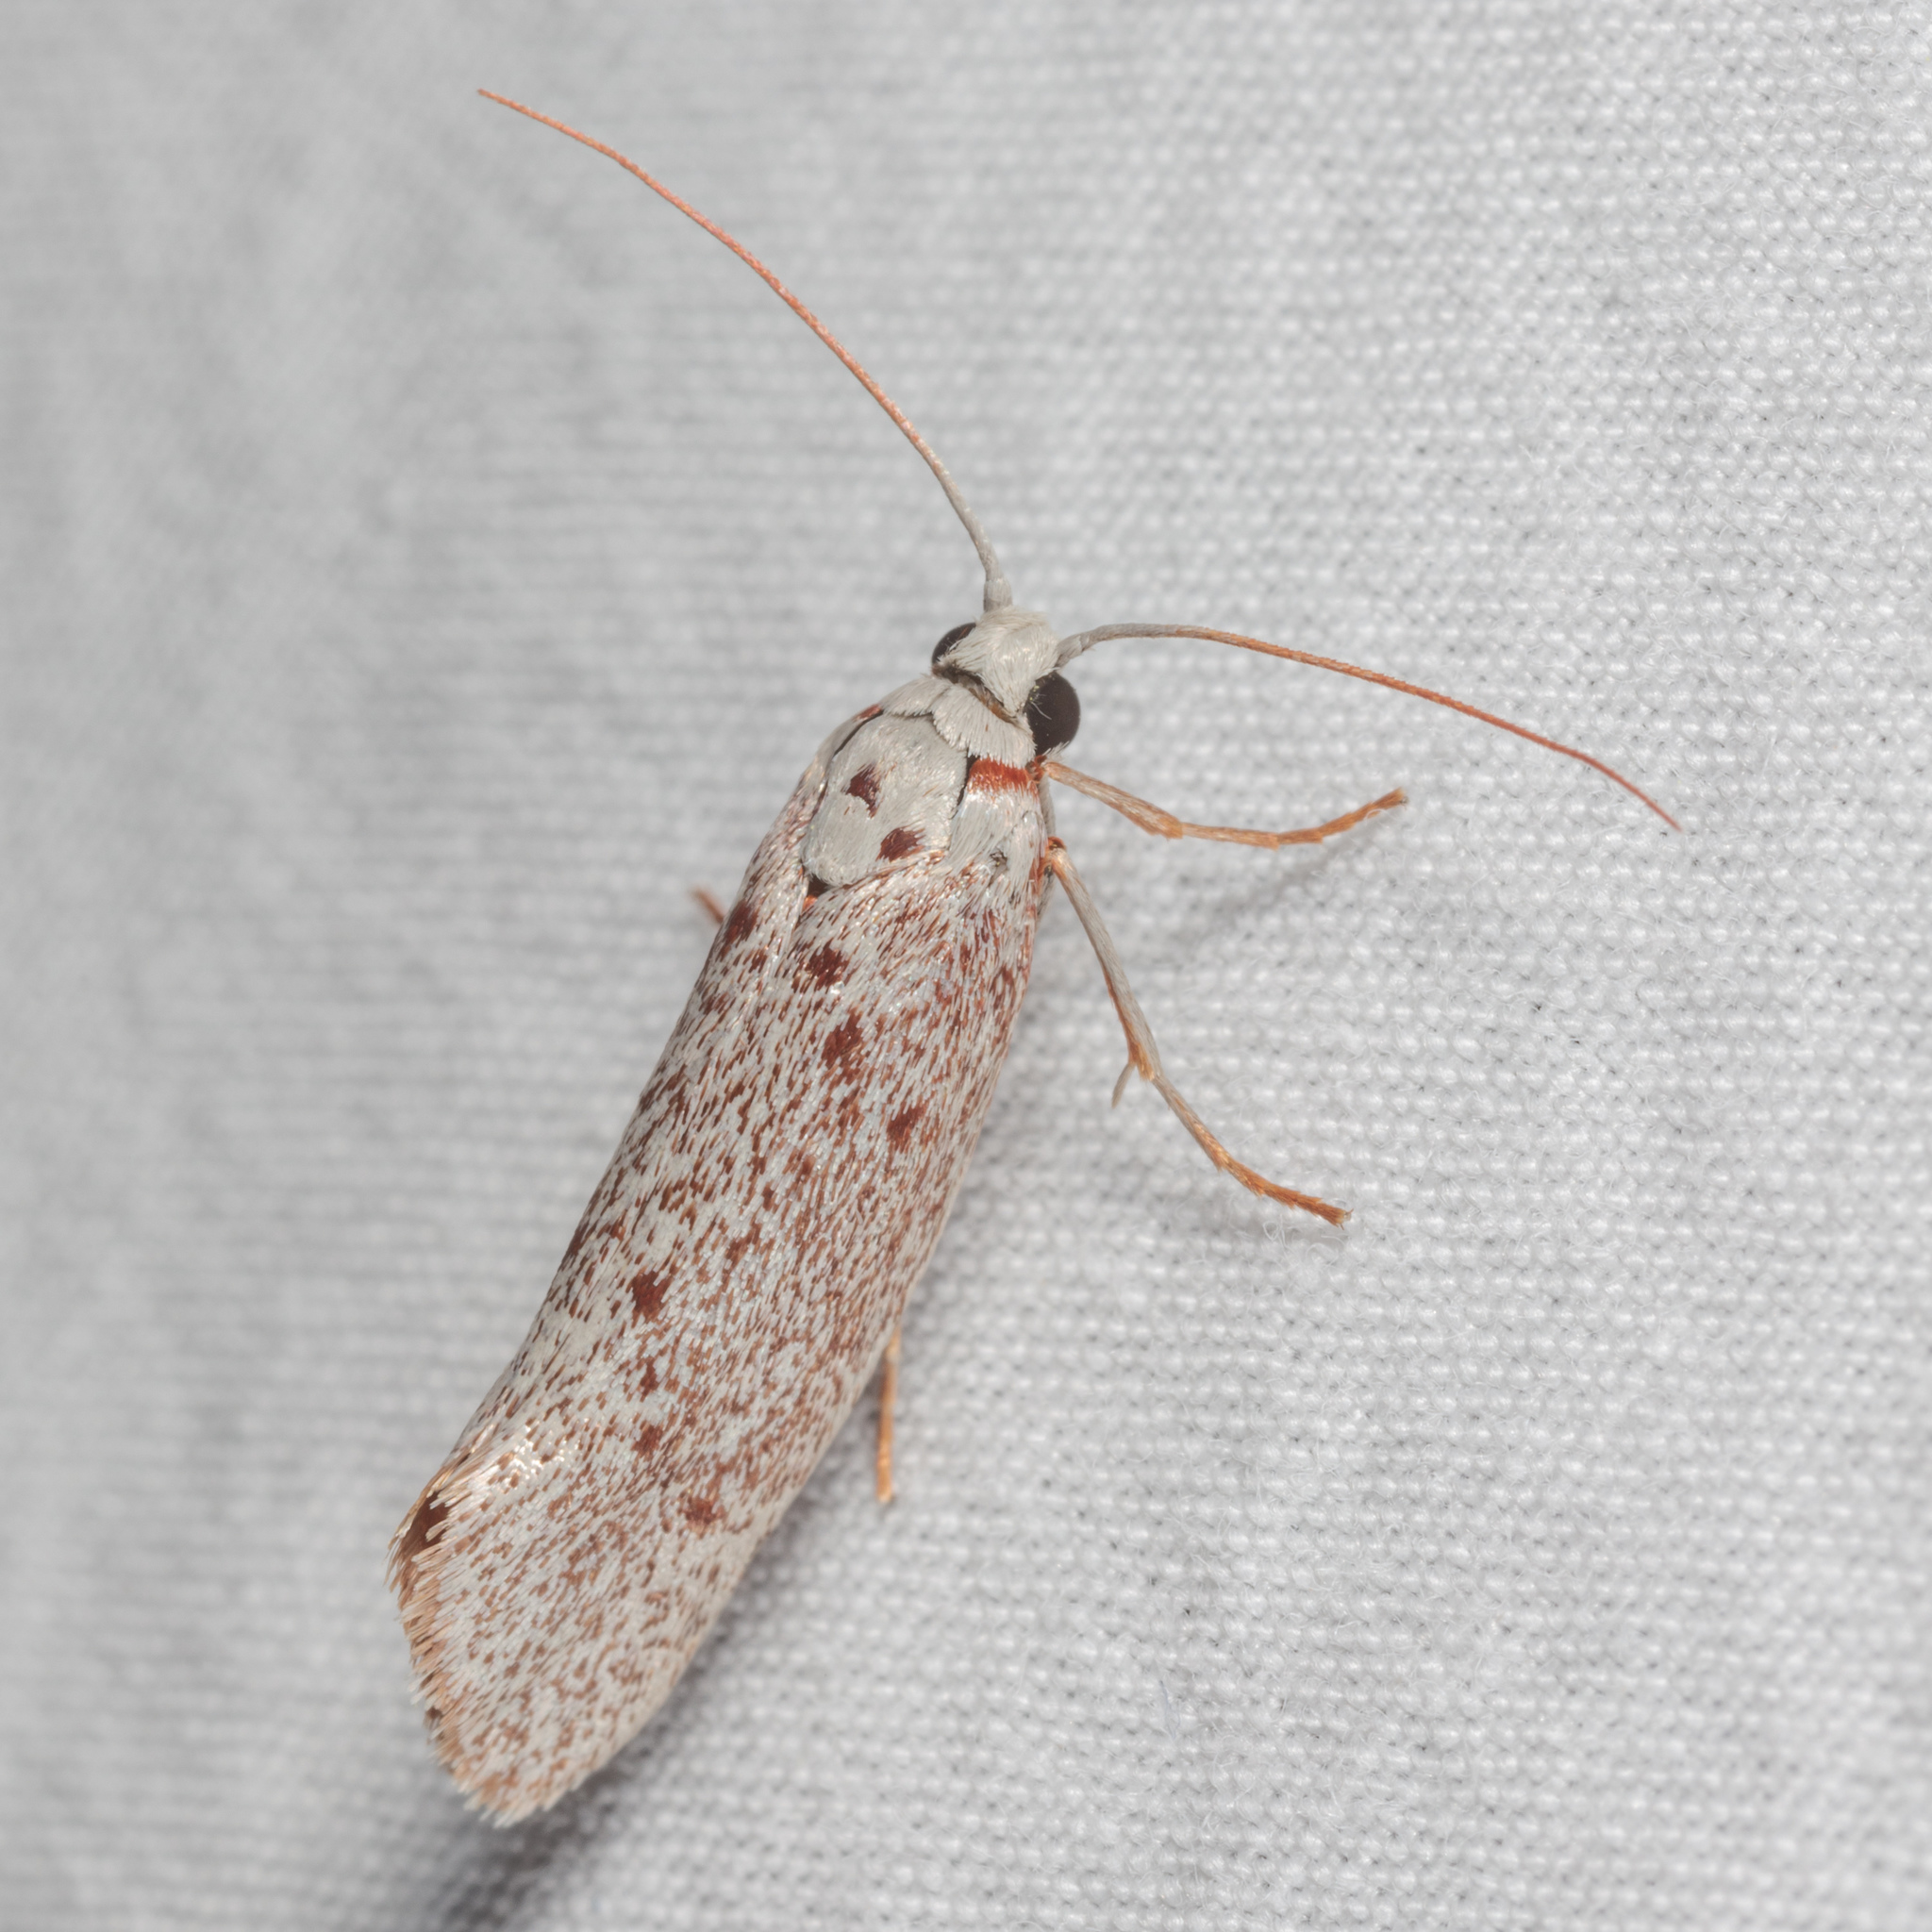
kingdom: Animalia
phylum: Arthropoda
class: Insecta
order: Lepidoptera
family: Lacturidae
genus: Lactura
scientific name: Lactura
